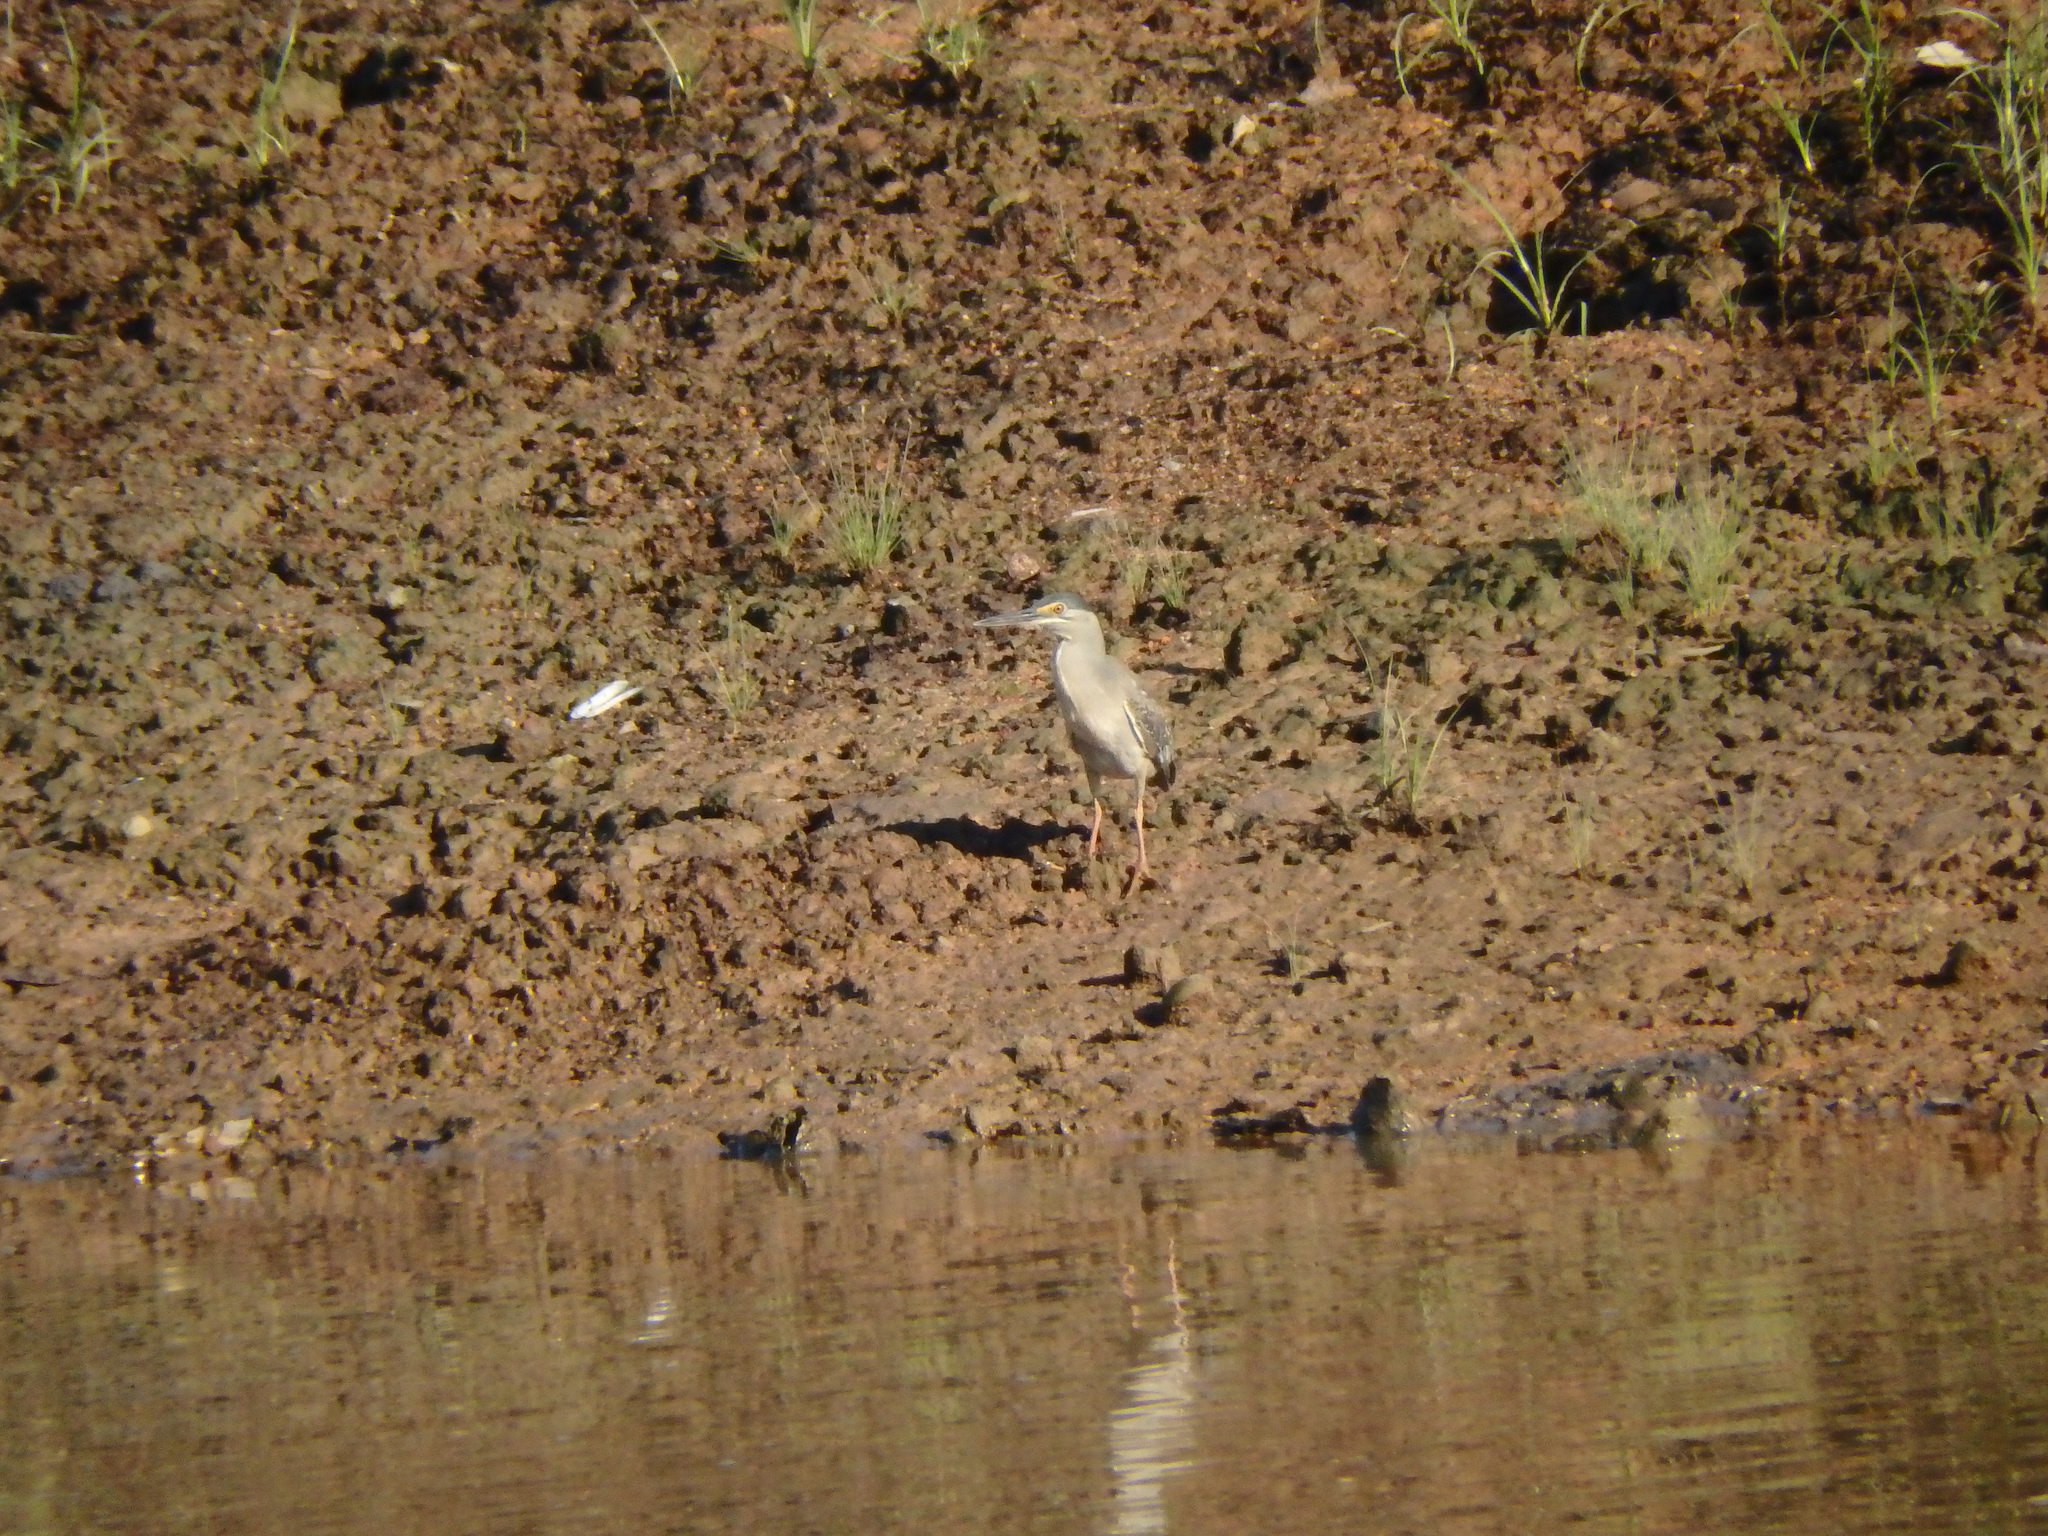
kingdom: Animalia
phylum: Chordata
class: Aves
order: Pelecaniformes
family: Ardeidae
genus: Butorides
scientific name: Butorides striata
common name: Striated heron
